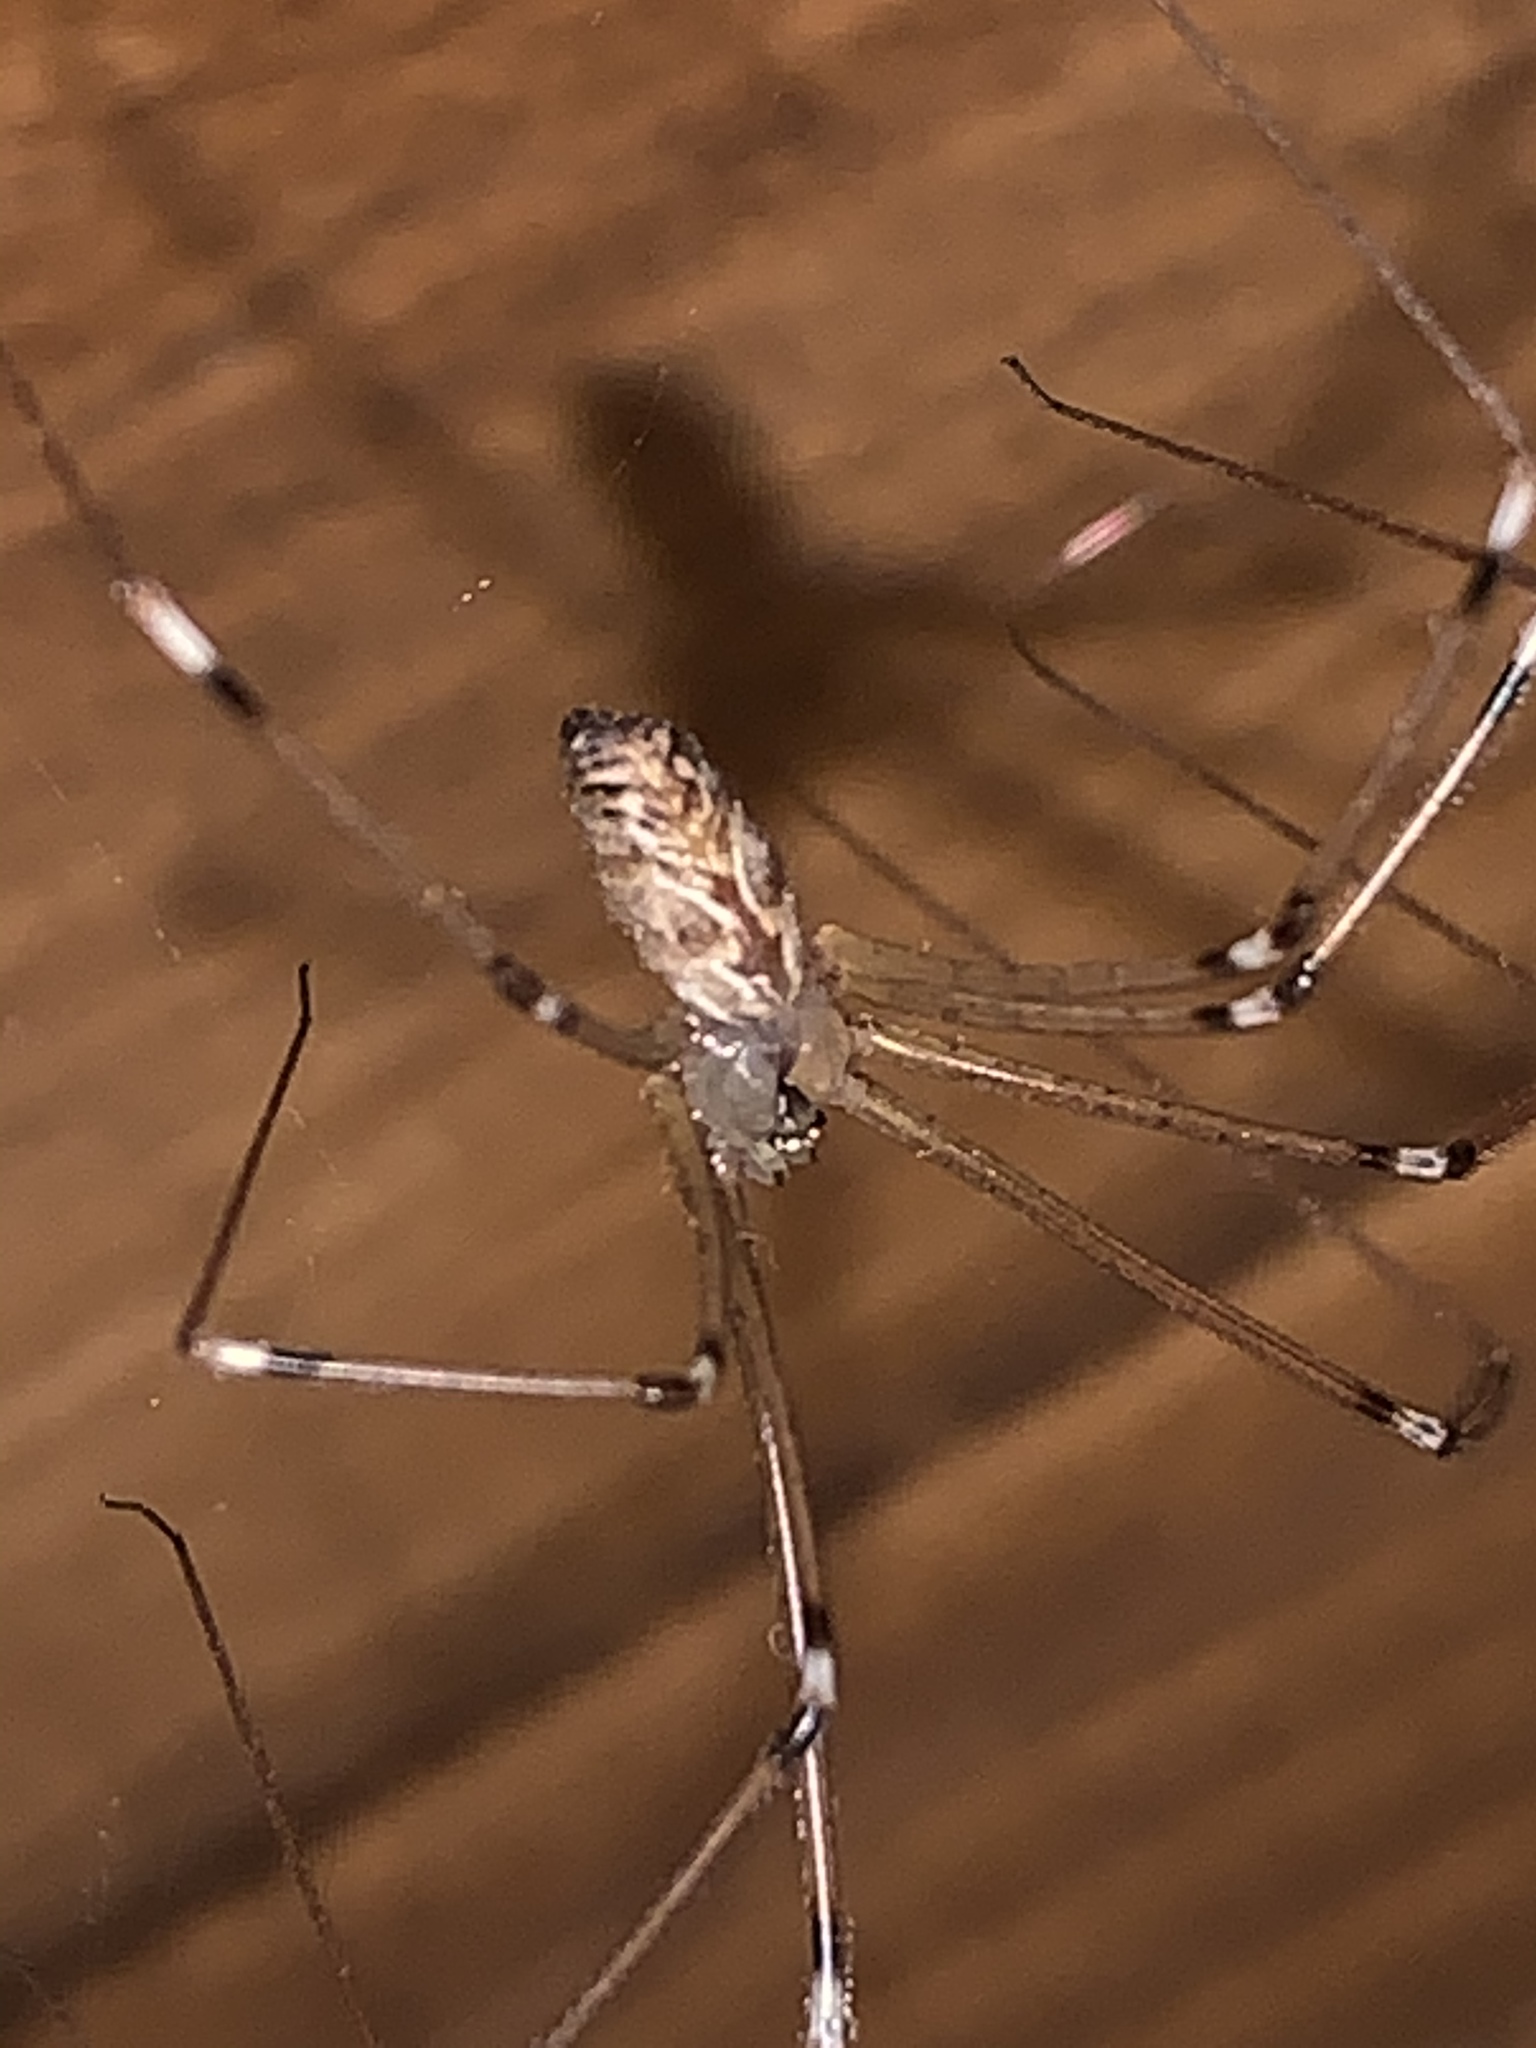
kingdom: Animalia
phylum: Arthropoda
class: Arachnida
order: Araneae
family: Pholcidae
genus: Holocnemus
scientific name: Holocnemus pluchei
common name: Marbled cellar spider
